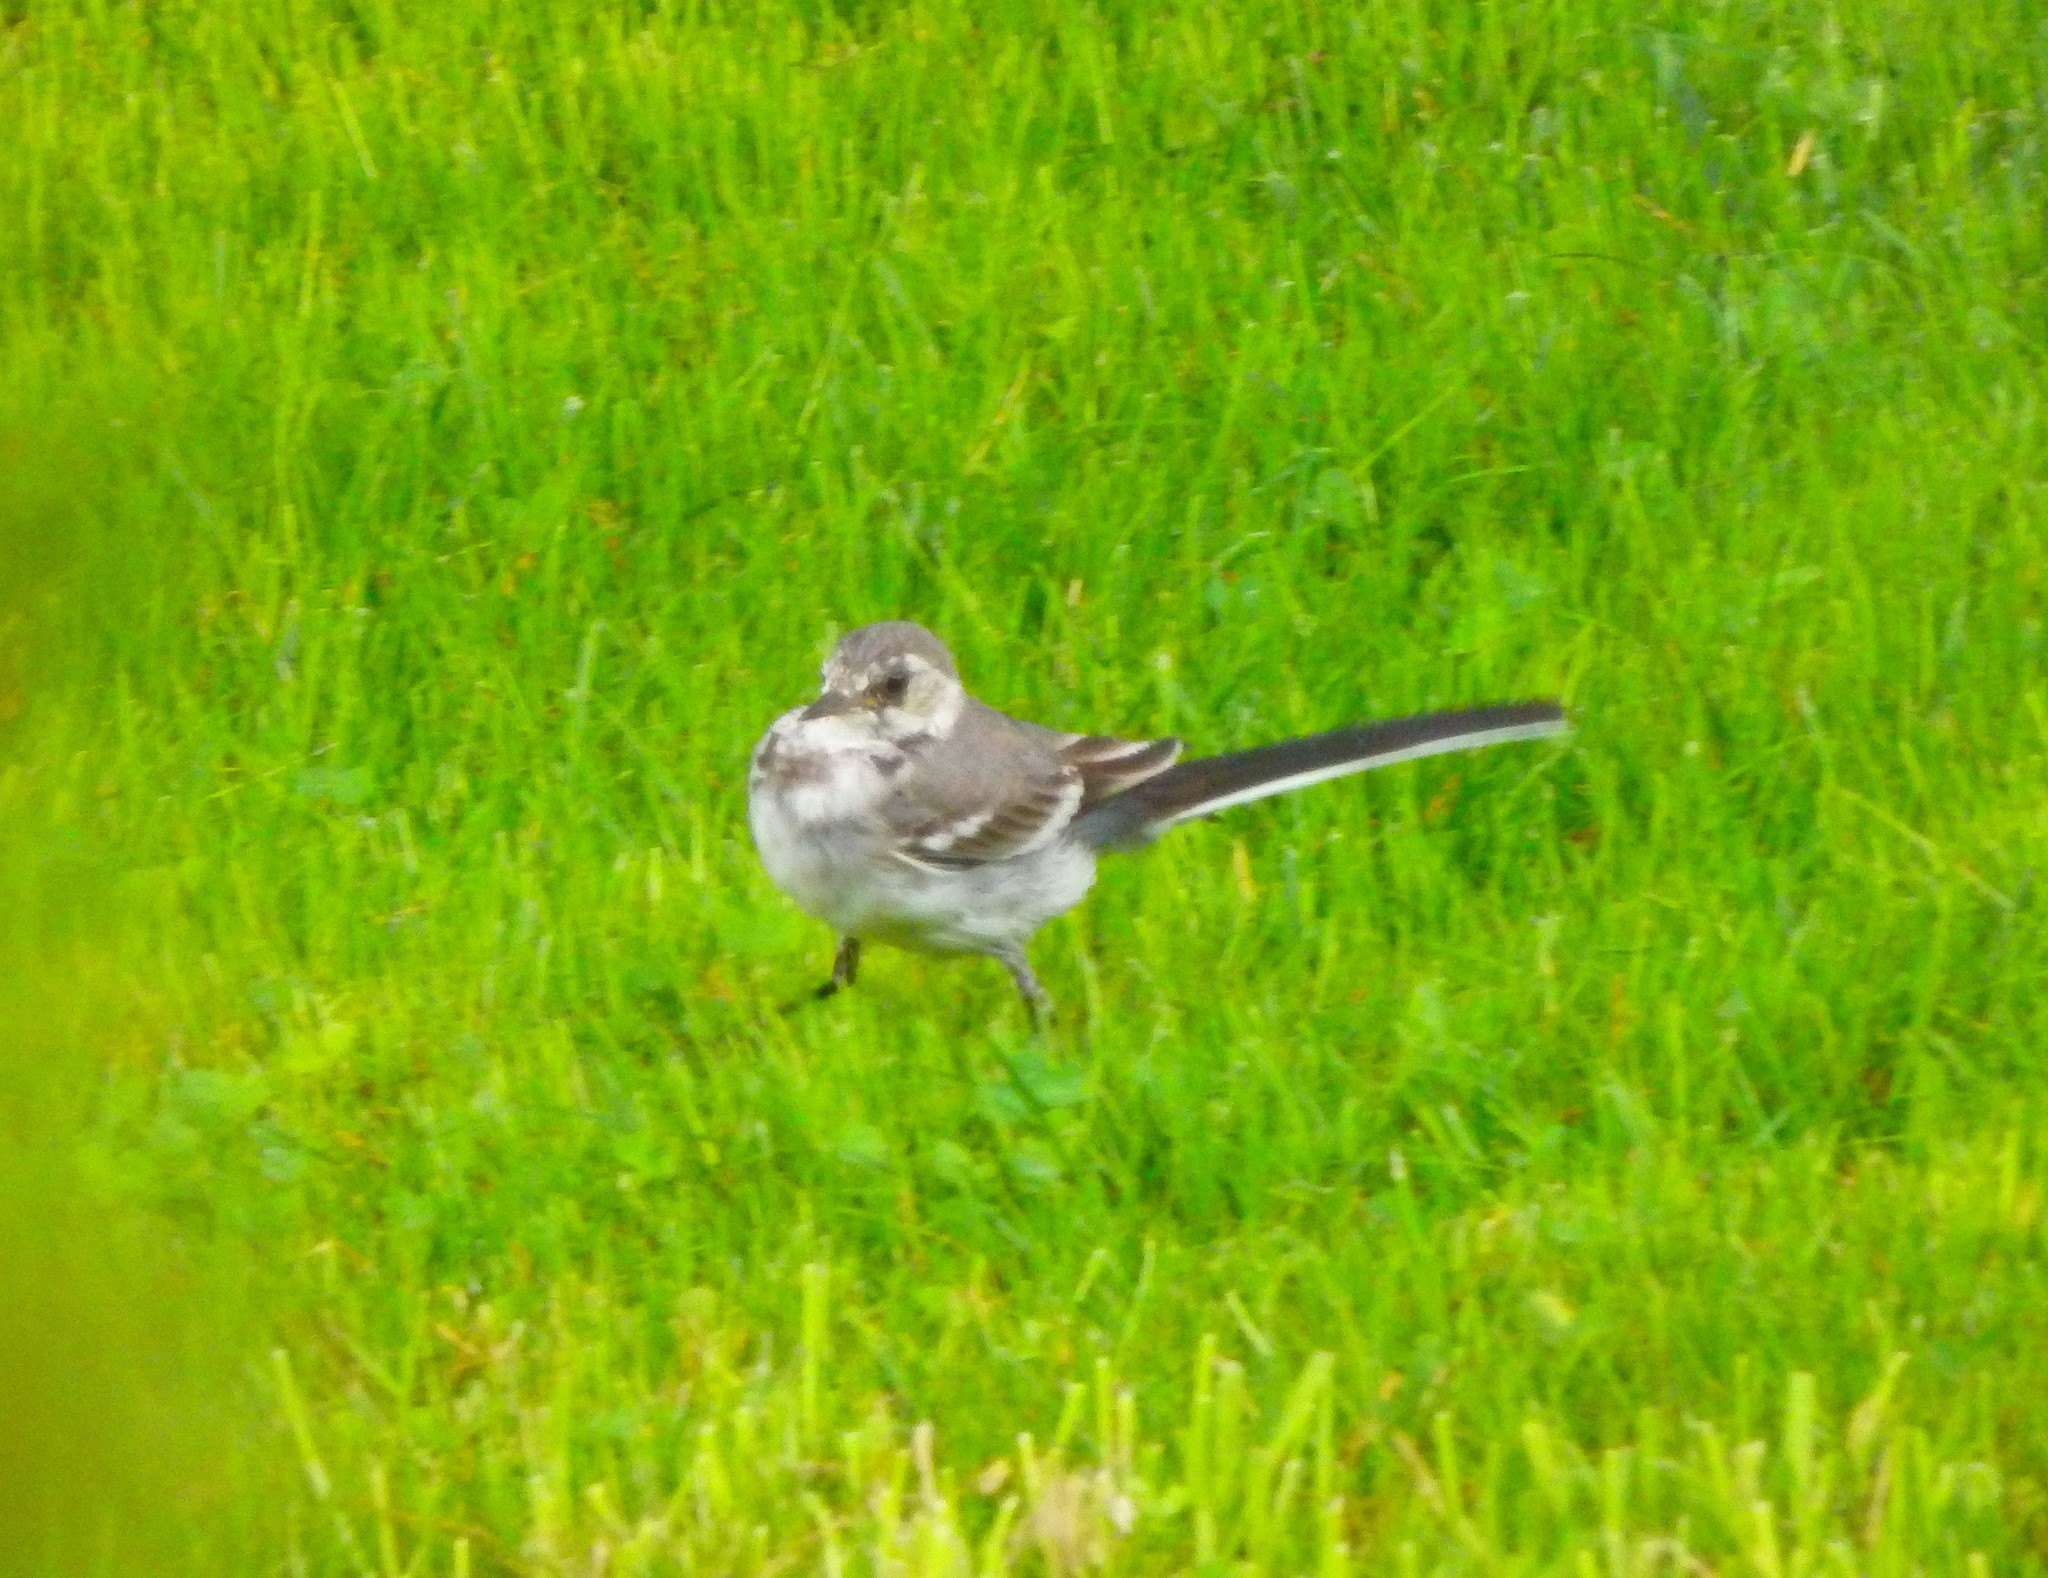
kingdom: Animalia
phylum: Chordata
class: Aves
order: Passeriformes
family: Motacillidae
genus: Motacilla
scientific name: Motacilla alba
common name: White wagtail
